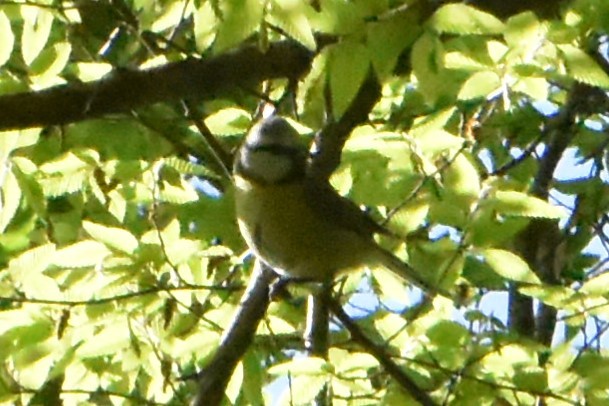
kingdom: Animalia
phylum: Chordata
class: Aves
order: Passeriformes
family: Paridae
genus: Cyanistes
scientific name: Cyanistes caeruleus
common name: Eurasian blue tit
